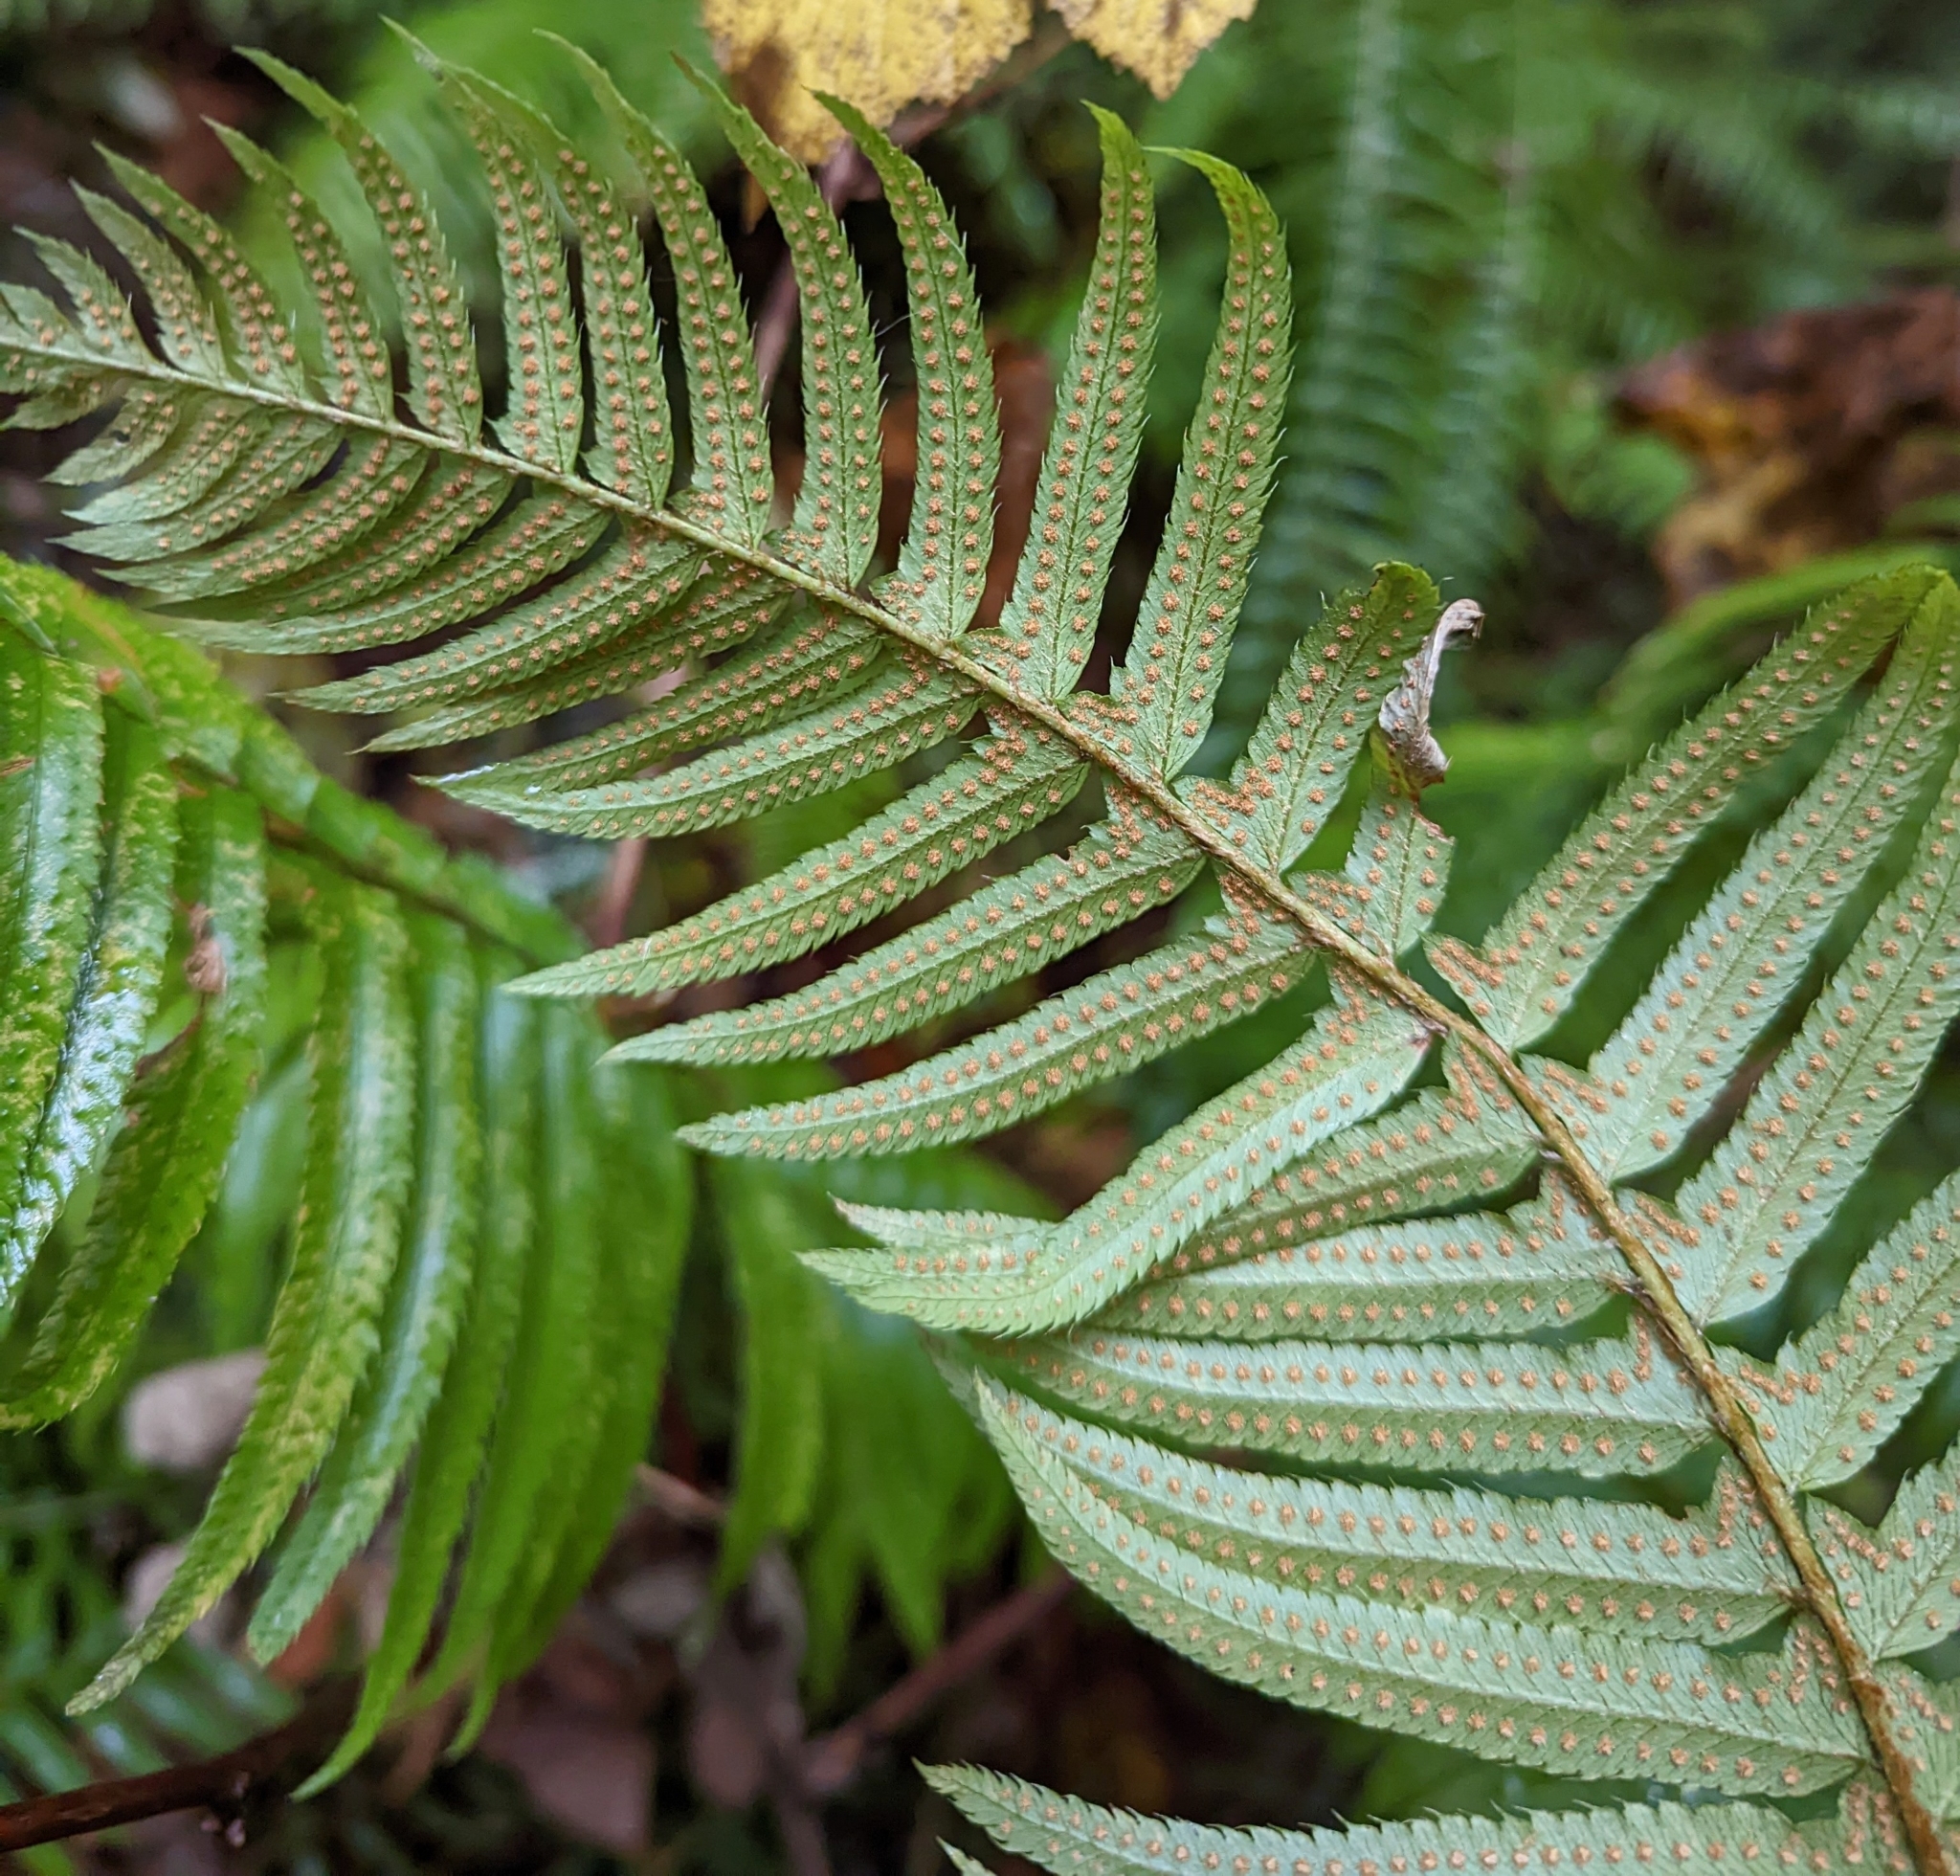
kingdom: Plantae
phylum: Tracheophyta
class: Polypodiopsida
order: Polypodiales
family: Dryopteridaceae
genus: Polystichum
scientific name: Polystichum munitum
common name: Western sword-fern
